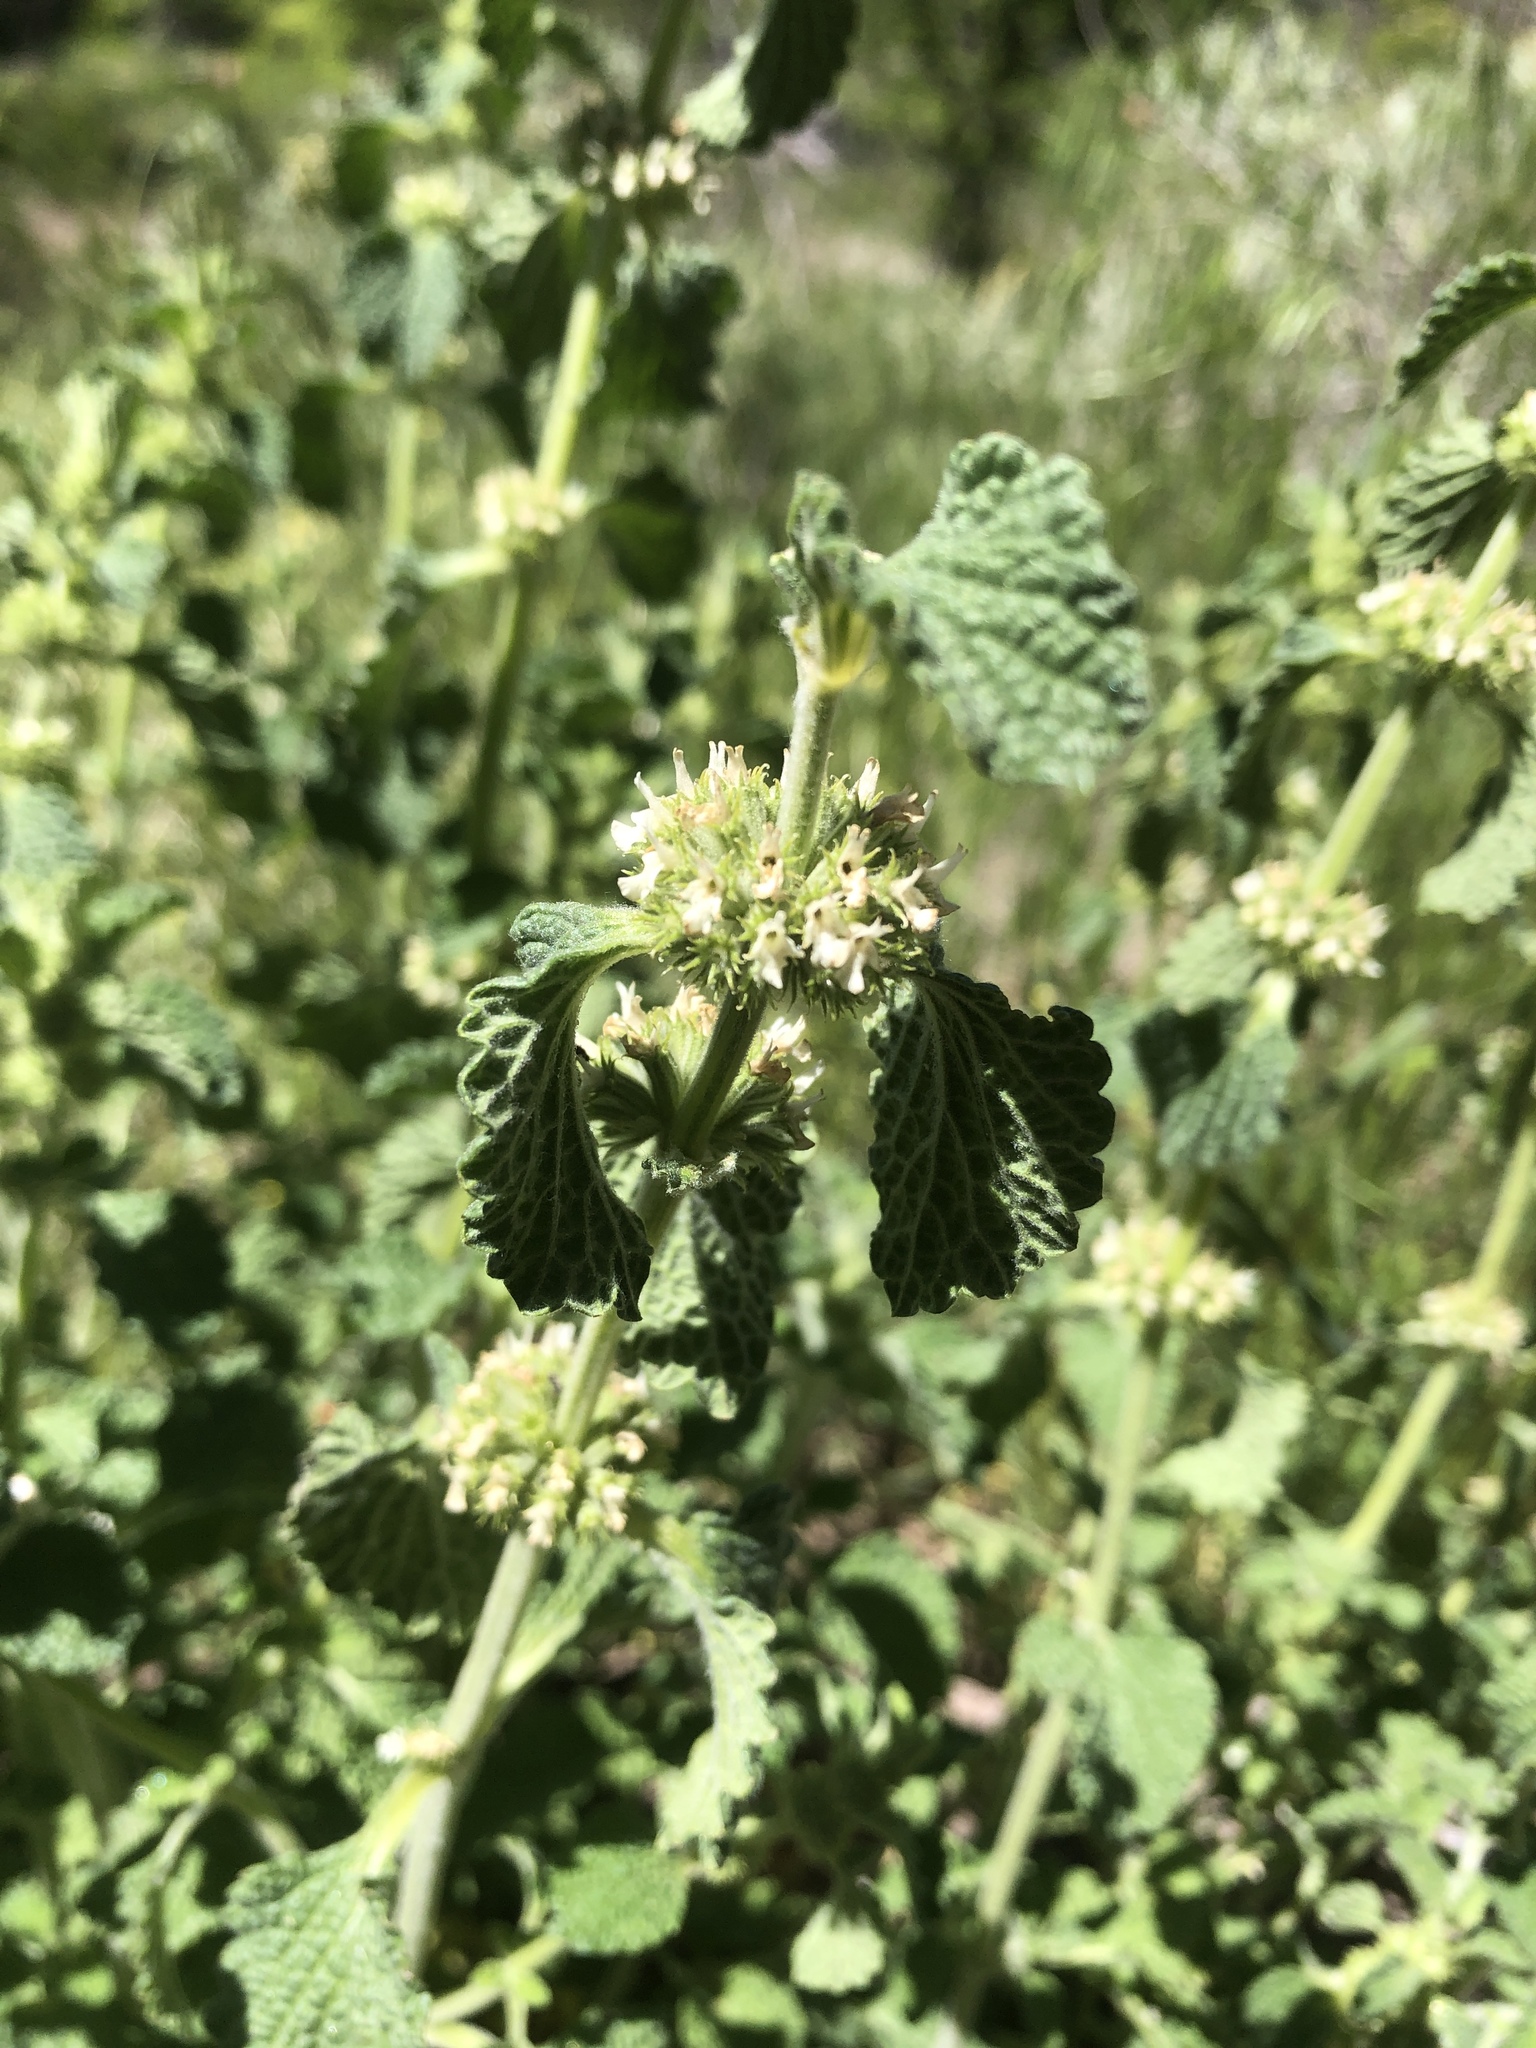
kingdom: Plantae
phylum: Tracheophyta
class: Magnoliopsida
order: Lamiales
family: Lamiaceae
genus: Marrubium
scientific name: Marrubium vulgare
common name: Horehound
